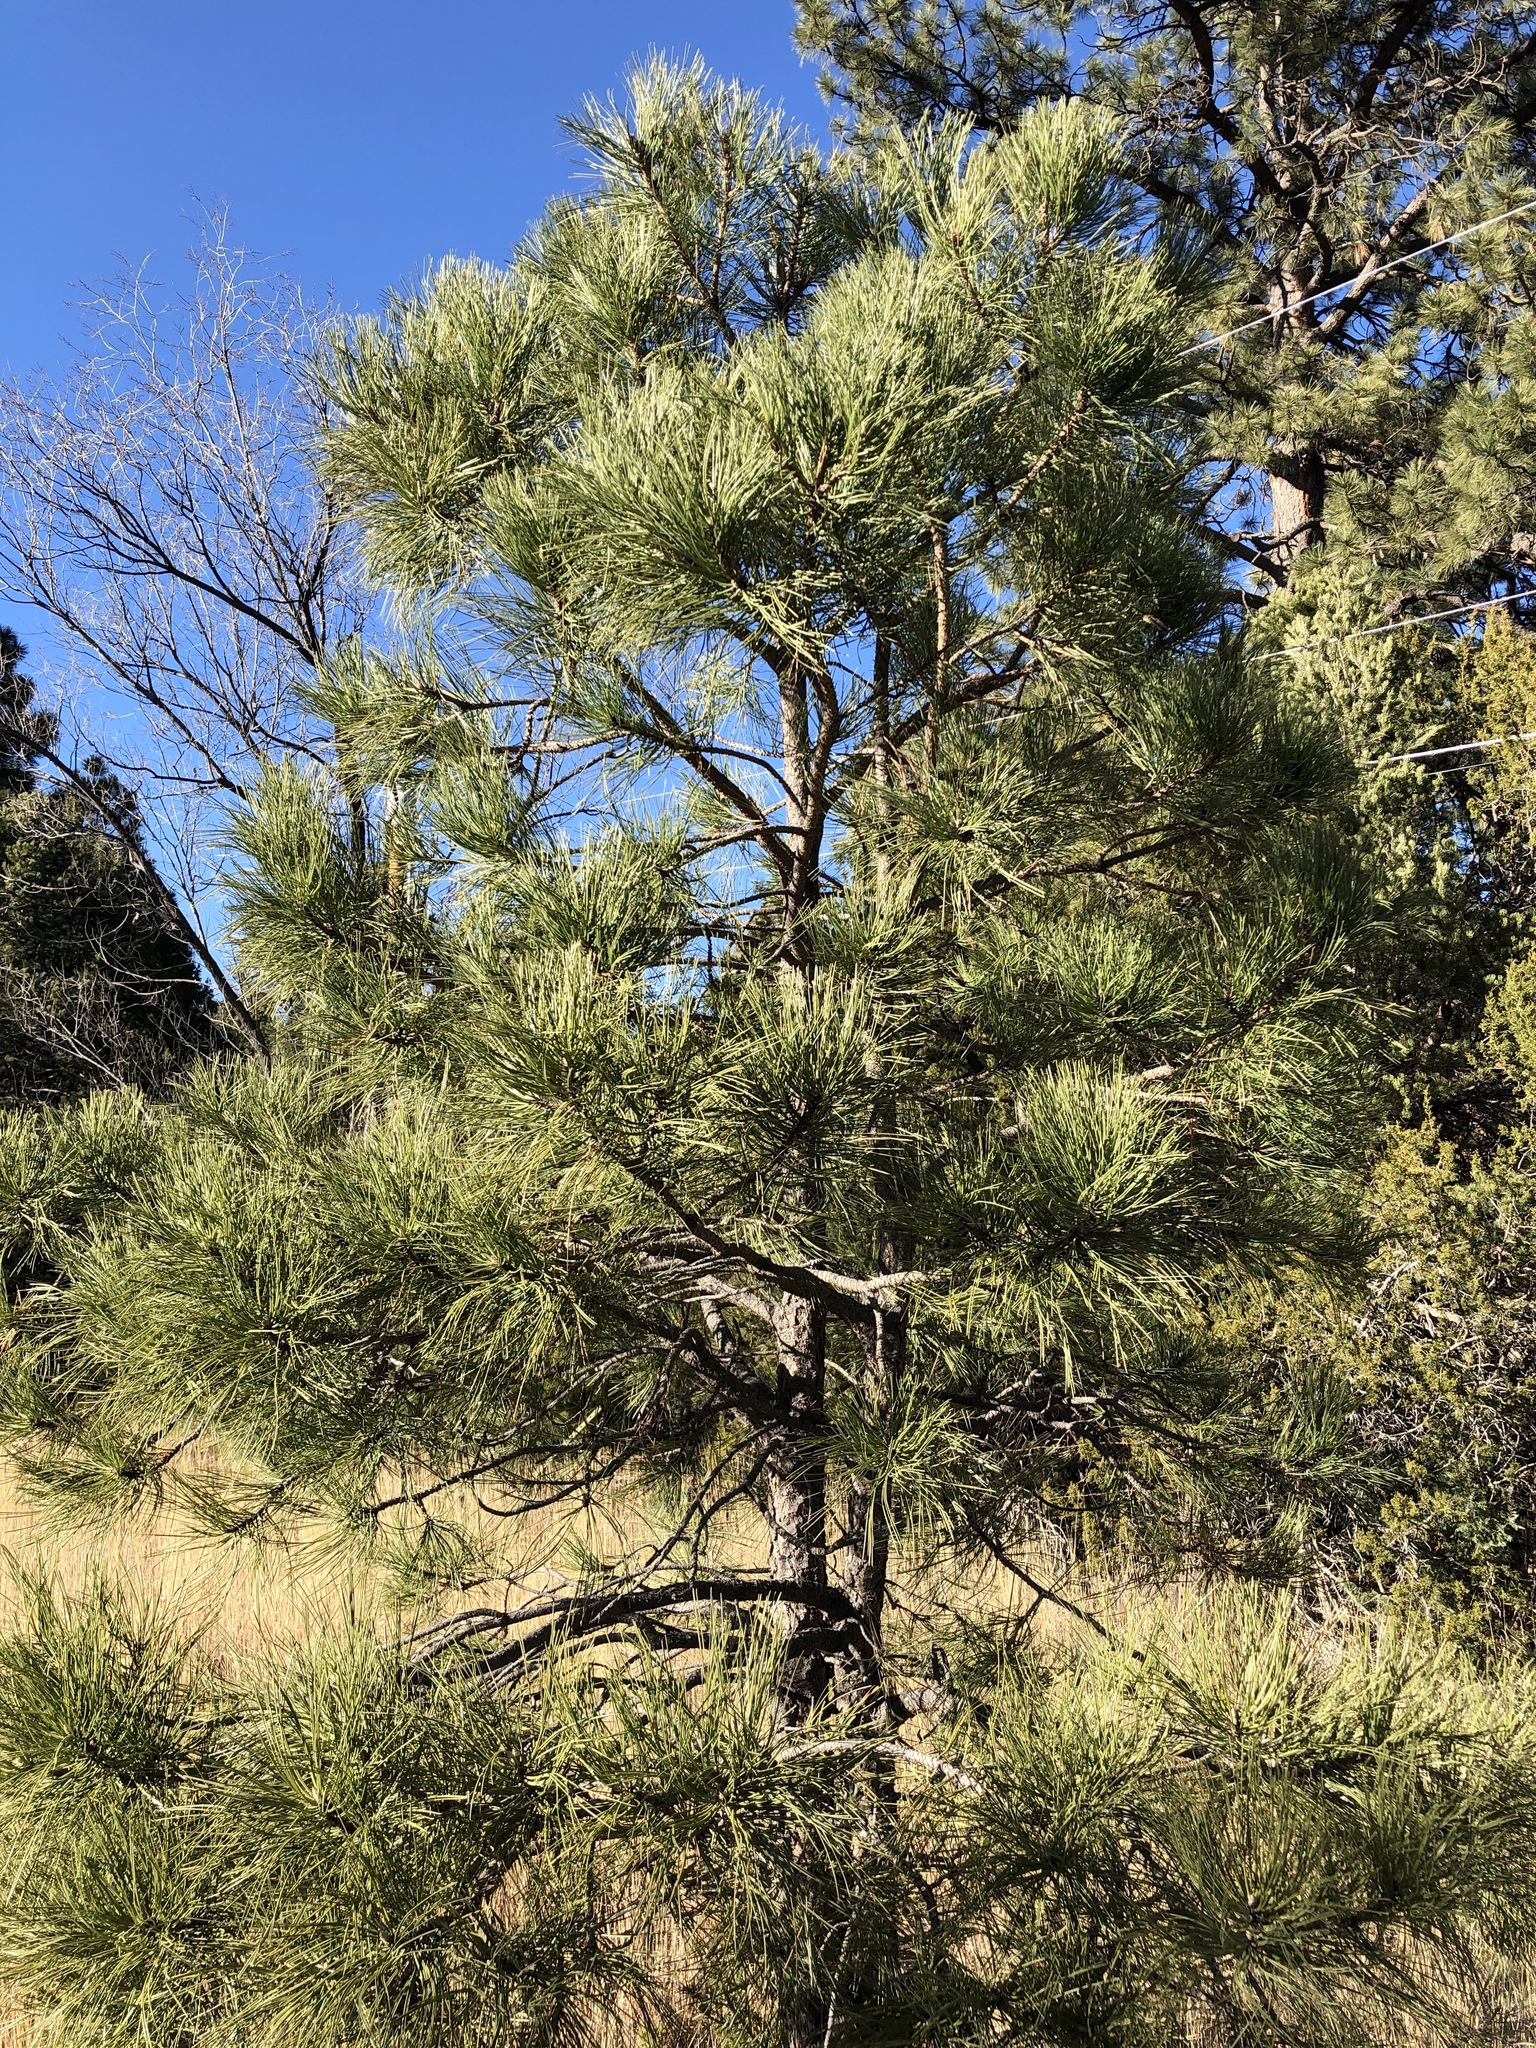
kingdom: Plantae
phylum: Tracheophyta
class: Pinopsida
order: Pinales
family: Pinaceae
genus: Pinus
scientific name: Pinus ponderosa
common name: Western yellow-pine
